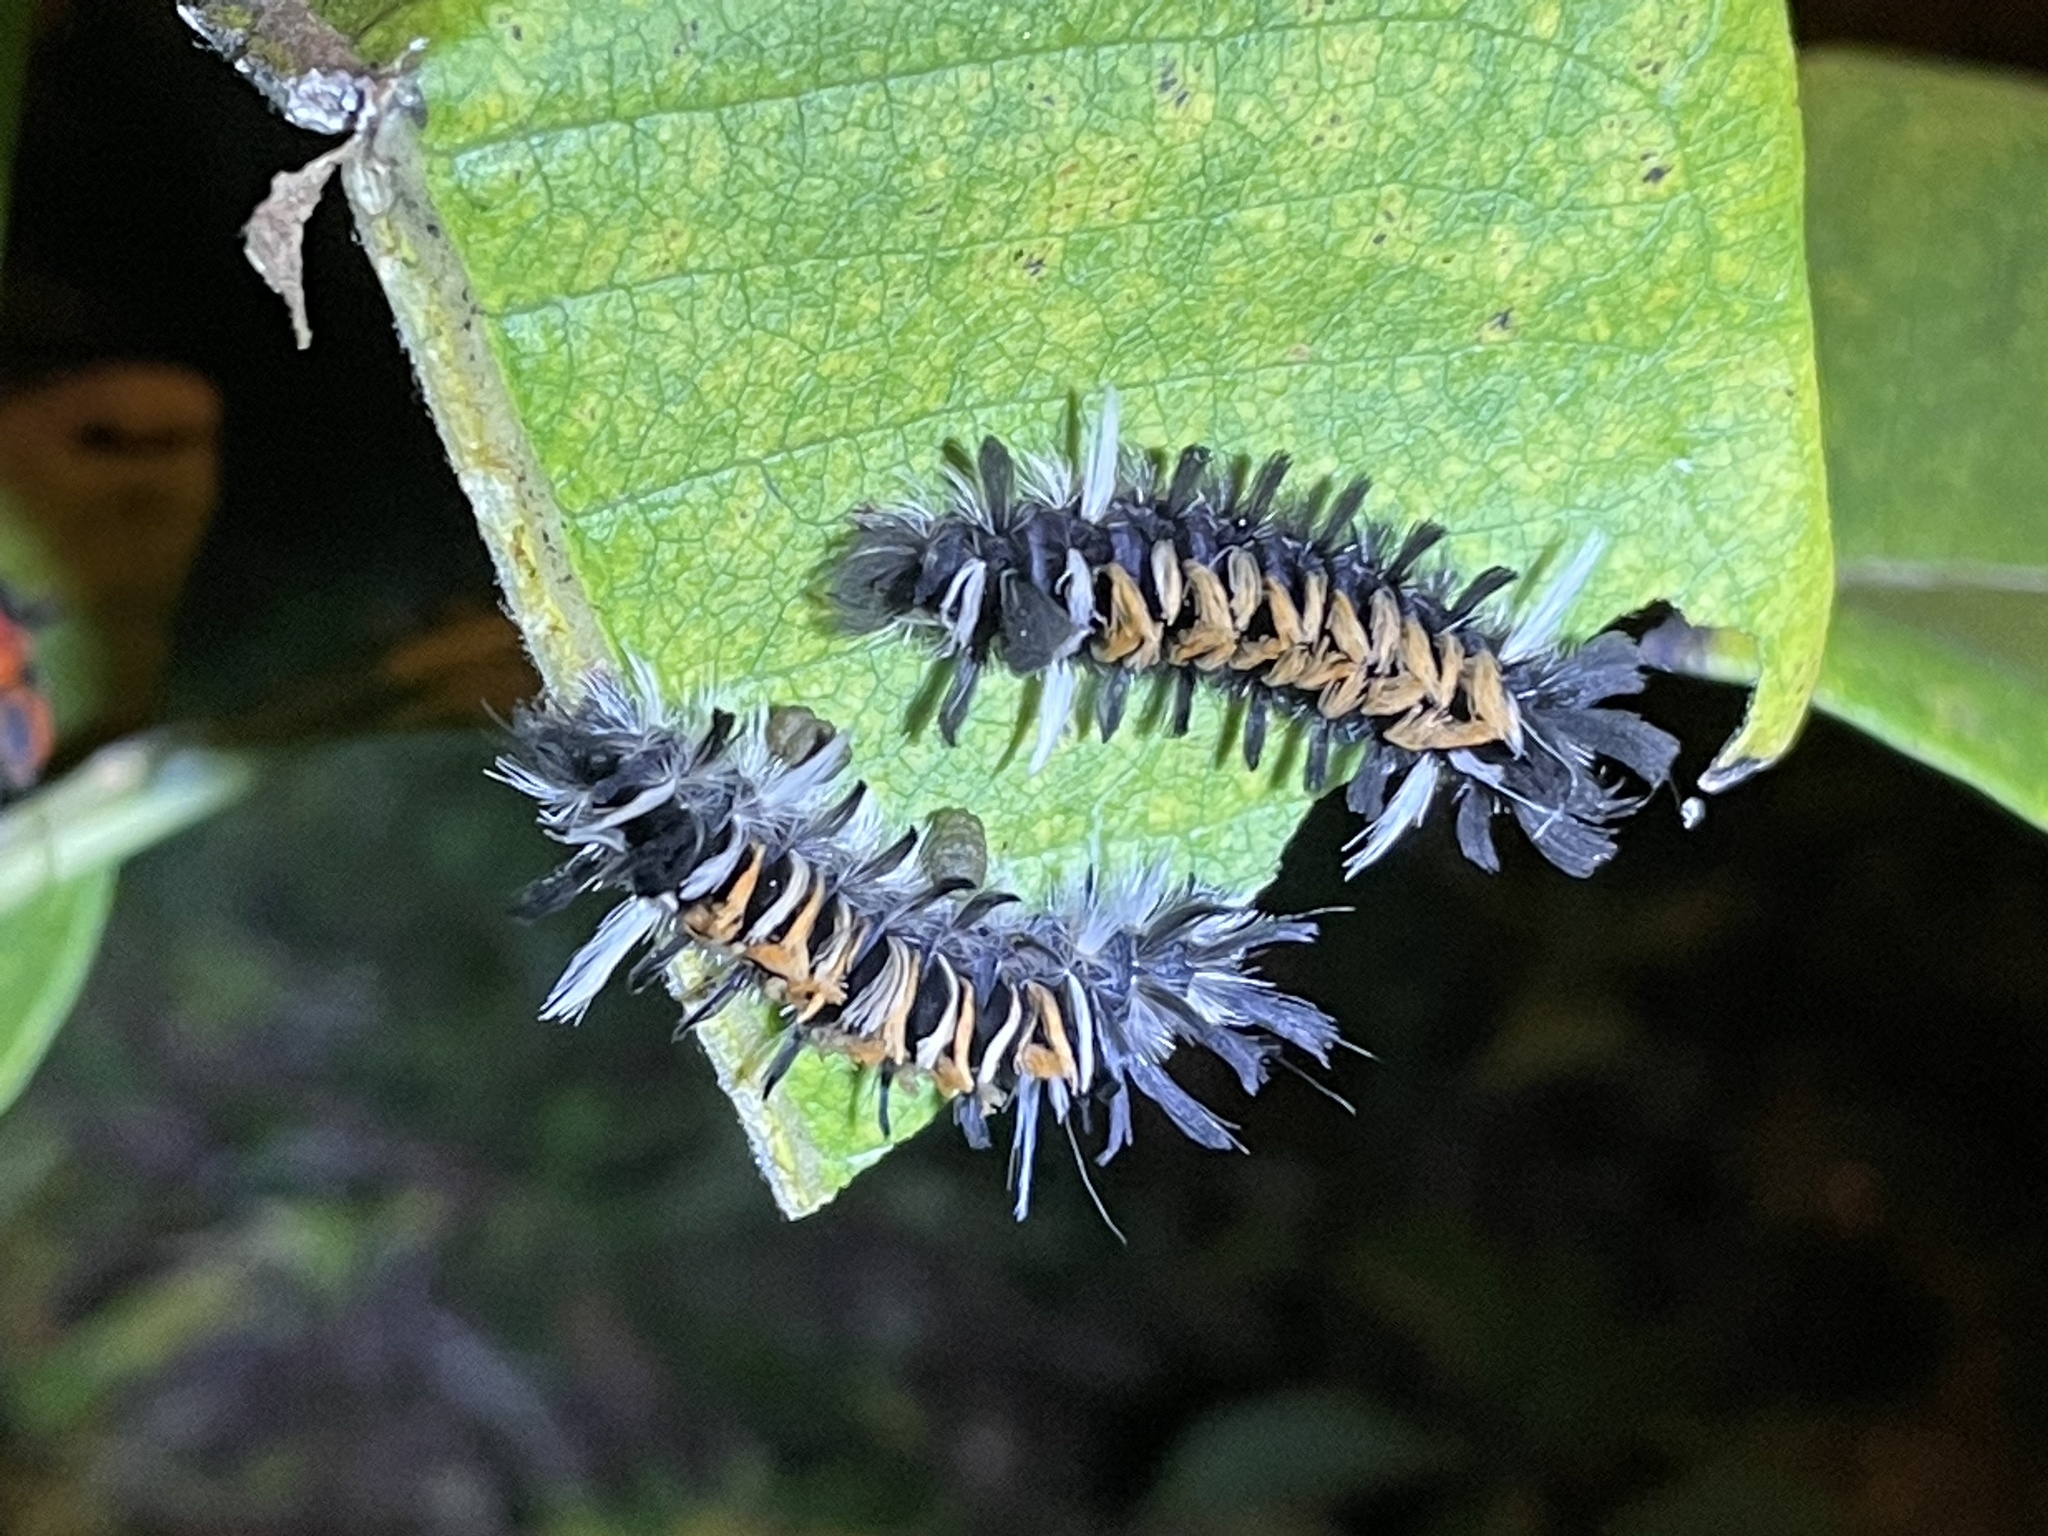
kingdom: Animalia
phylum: Arthropoda
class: Insecta
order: Lepidoptera
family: Erebidae
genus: Euchaetes
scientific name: Euchaetes egle
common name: Milkweed tussock moth
